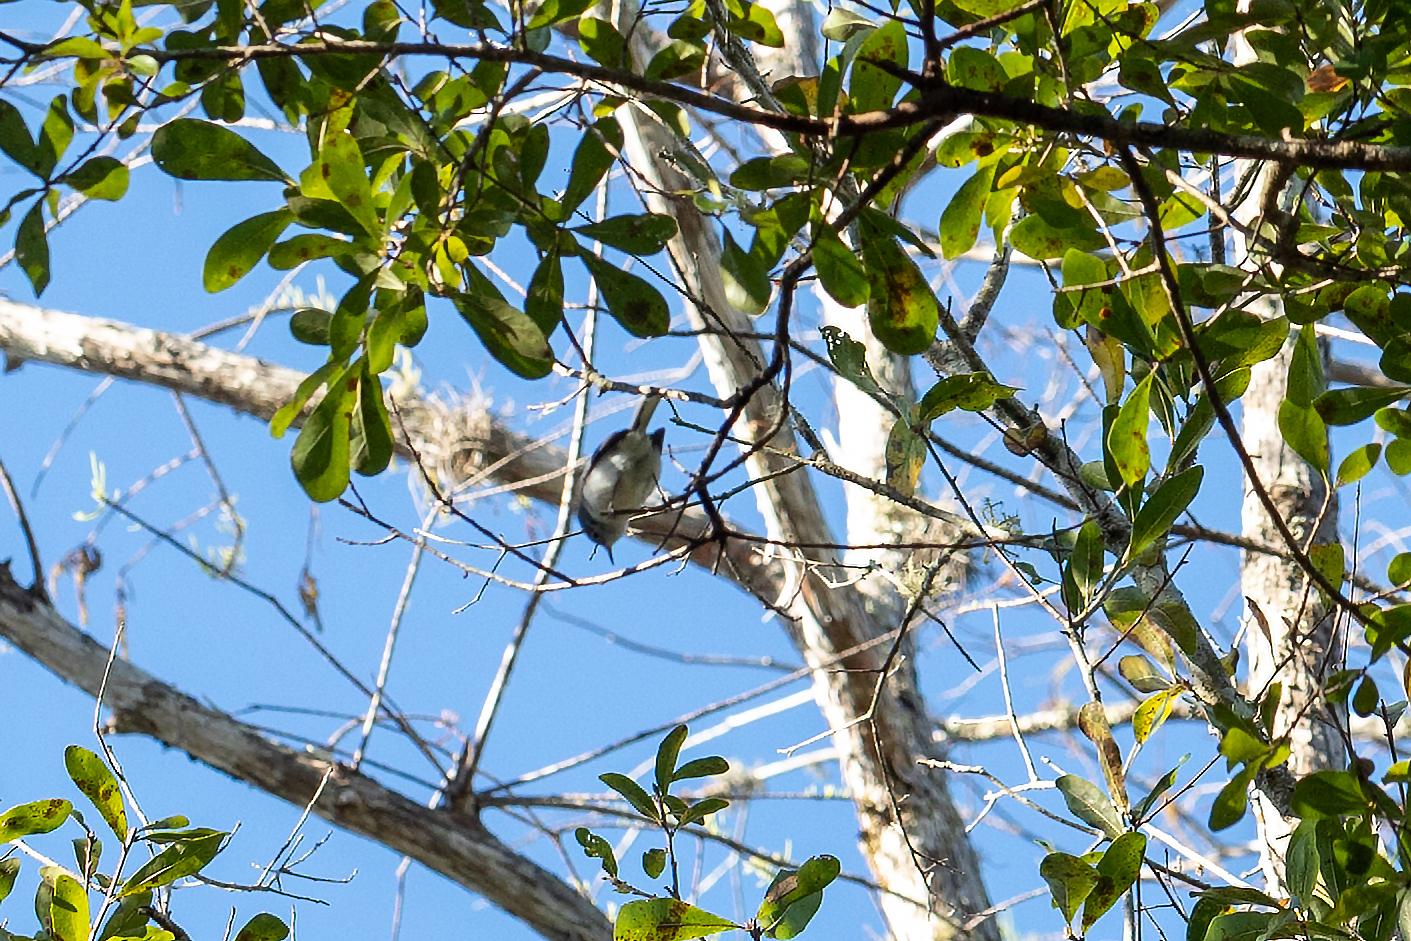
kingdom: Animalia
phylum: Chordata
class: Aves
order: Passeriformes
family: Polioptilidae
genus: Polioptila
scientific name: Polioptila caerulea
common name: Blue-gray gnatcatcher
